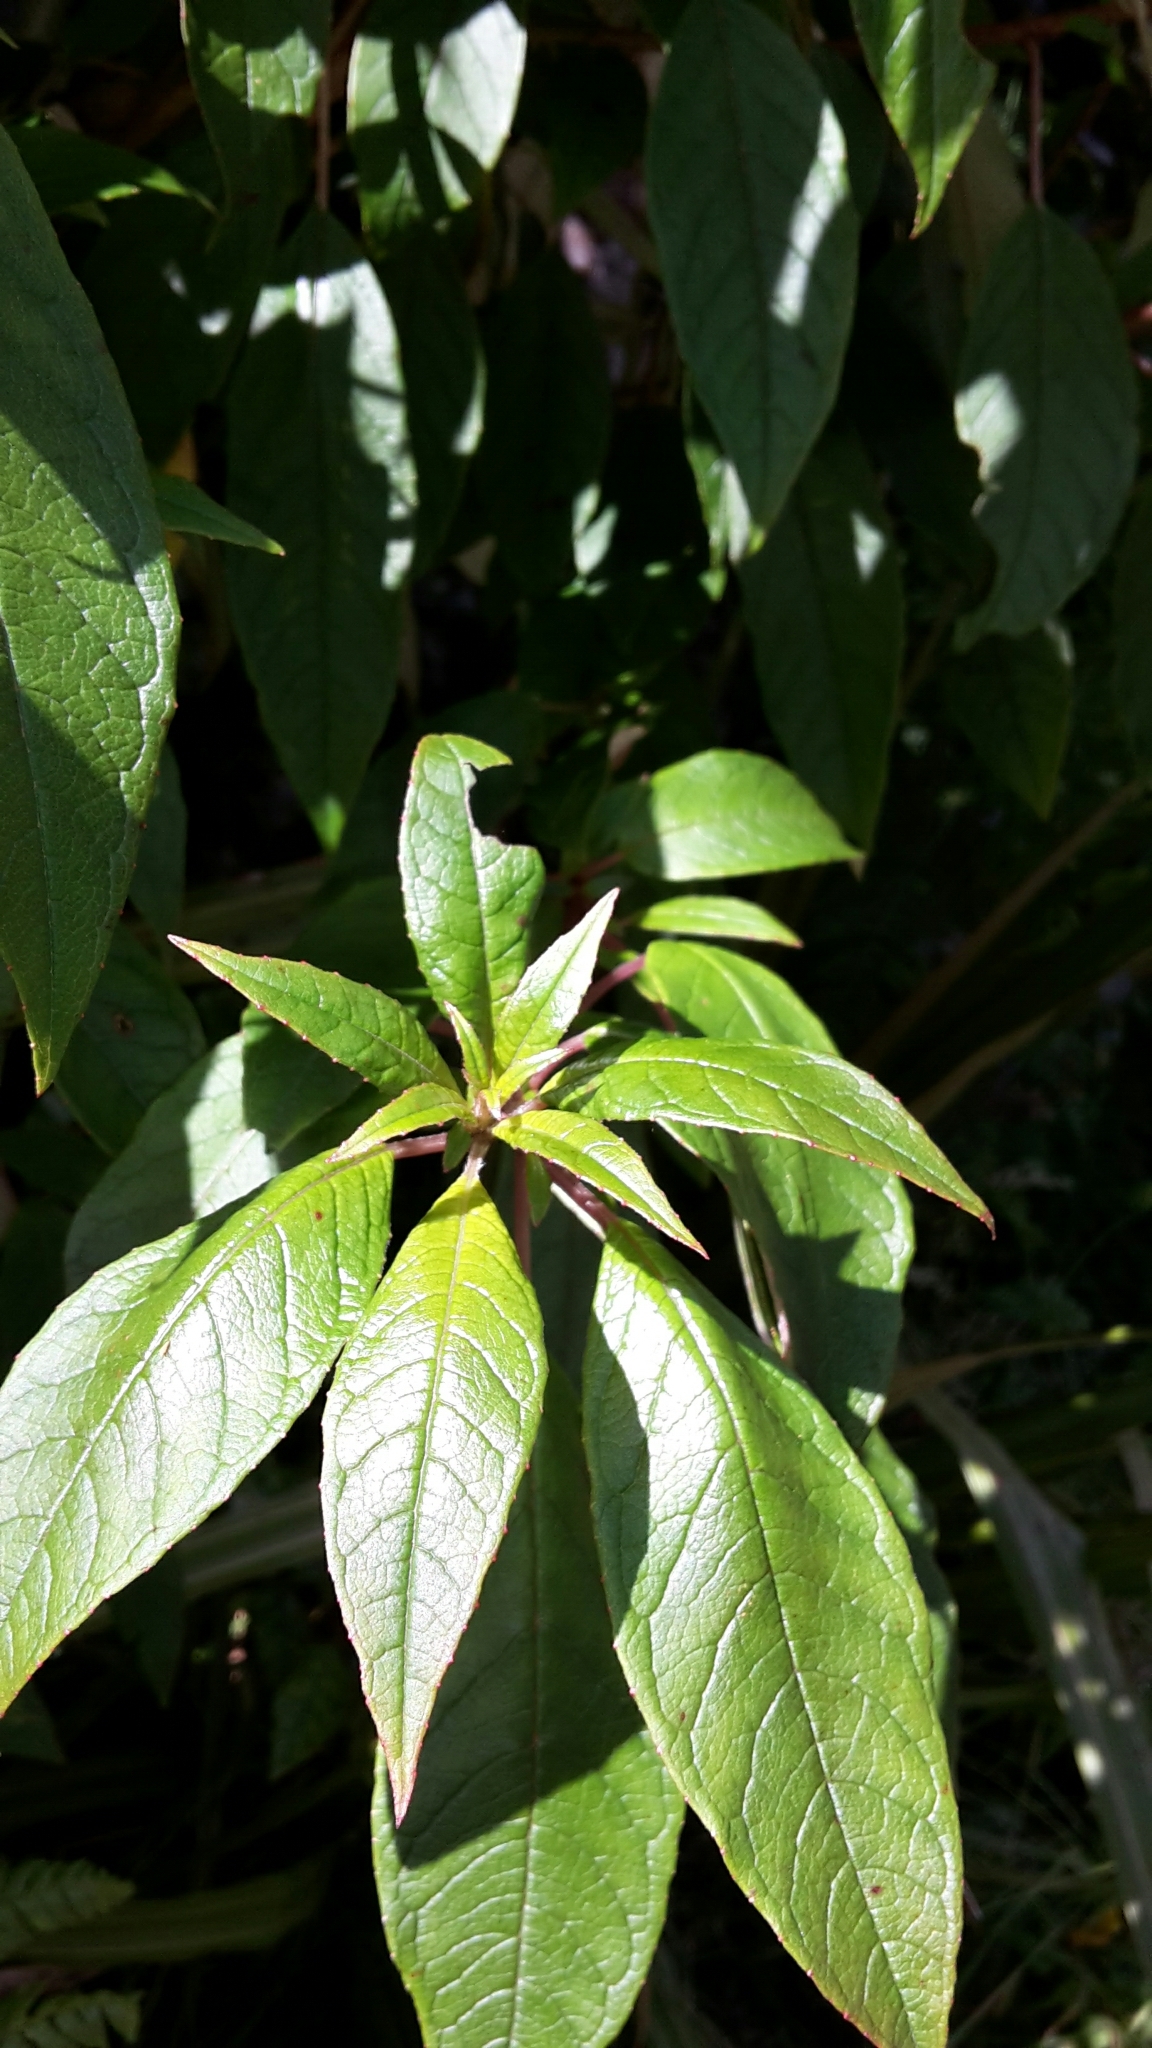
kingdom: Plantae
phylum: Tracheophyta
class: Magnoliopsida
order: Myrtales
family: Onagraceae
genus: Fuchsia
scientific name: Fuchsia excorticata
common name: Tree fuchsia
